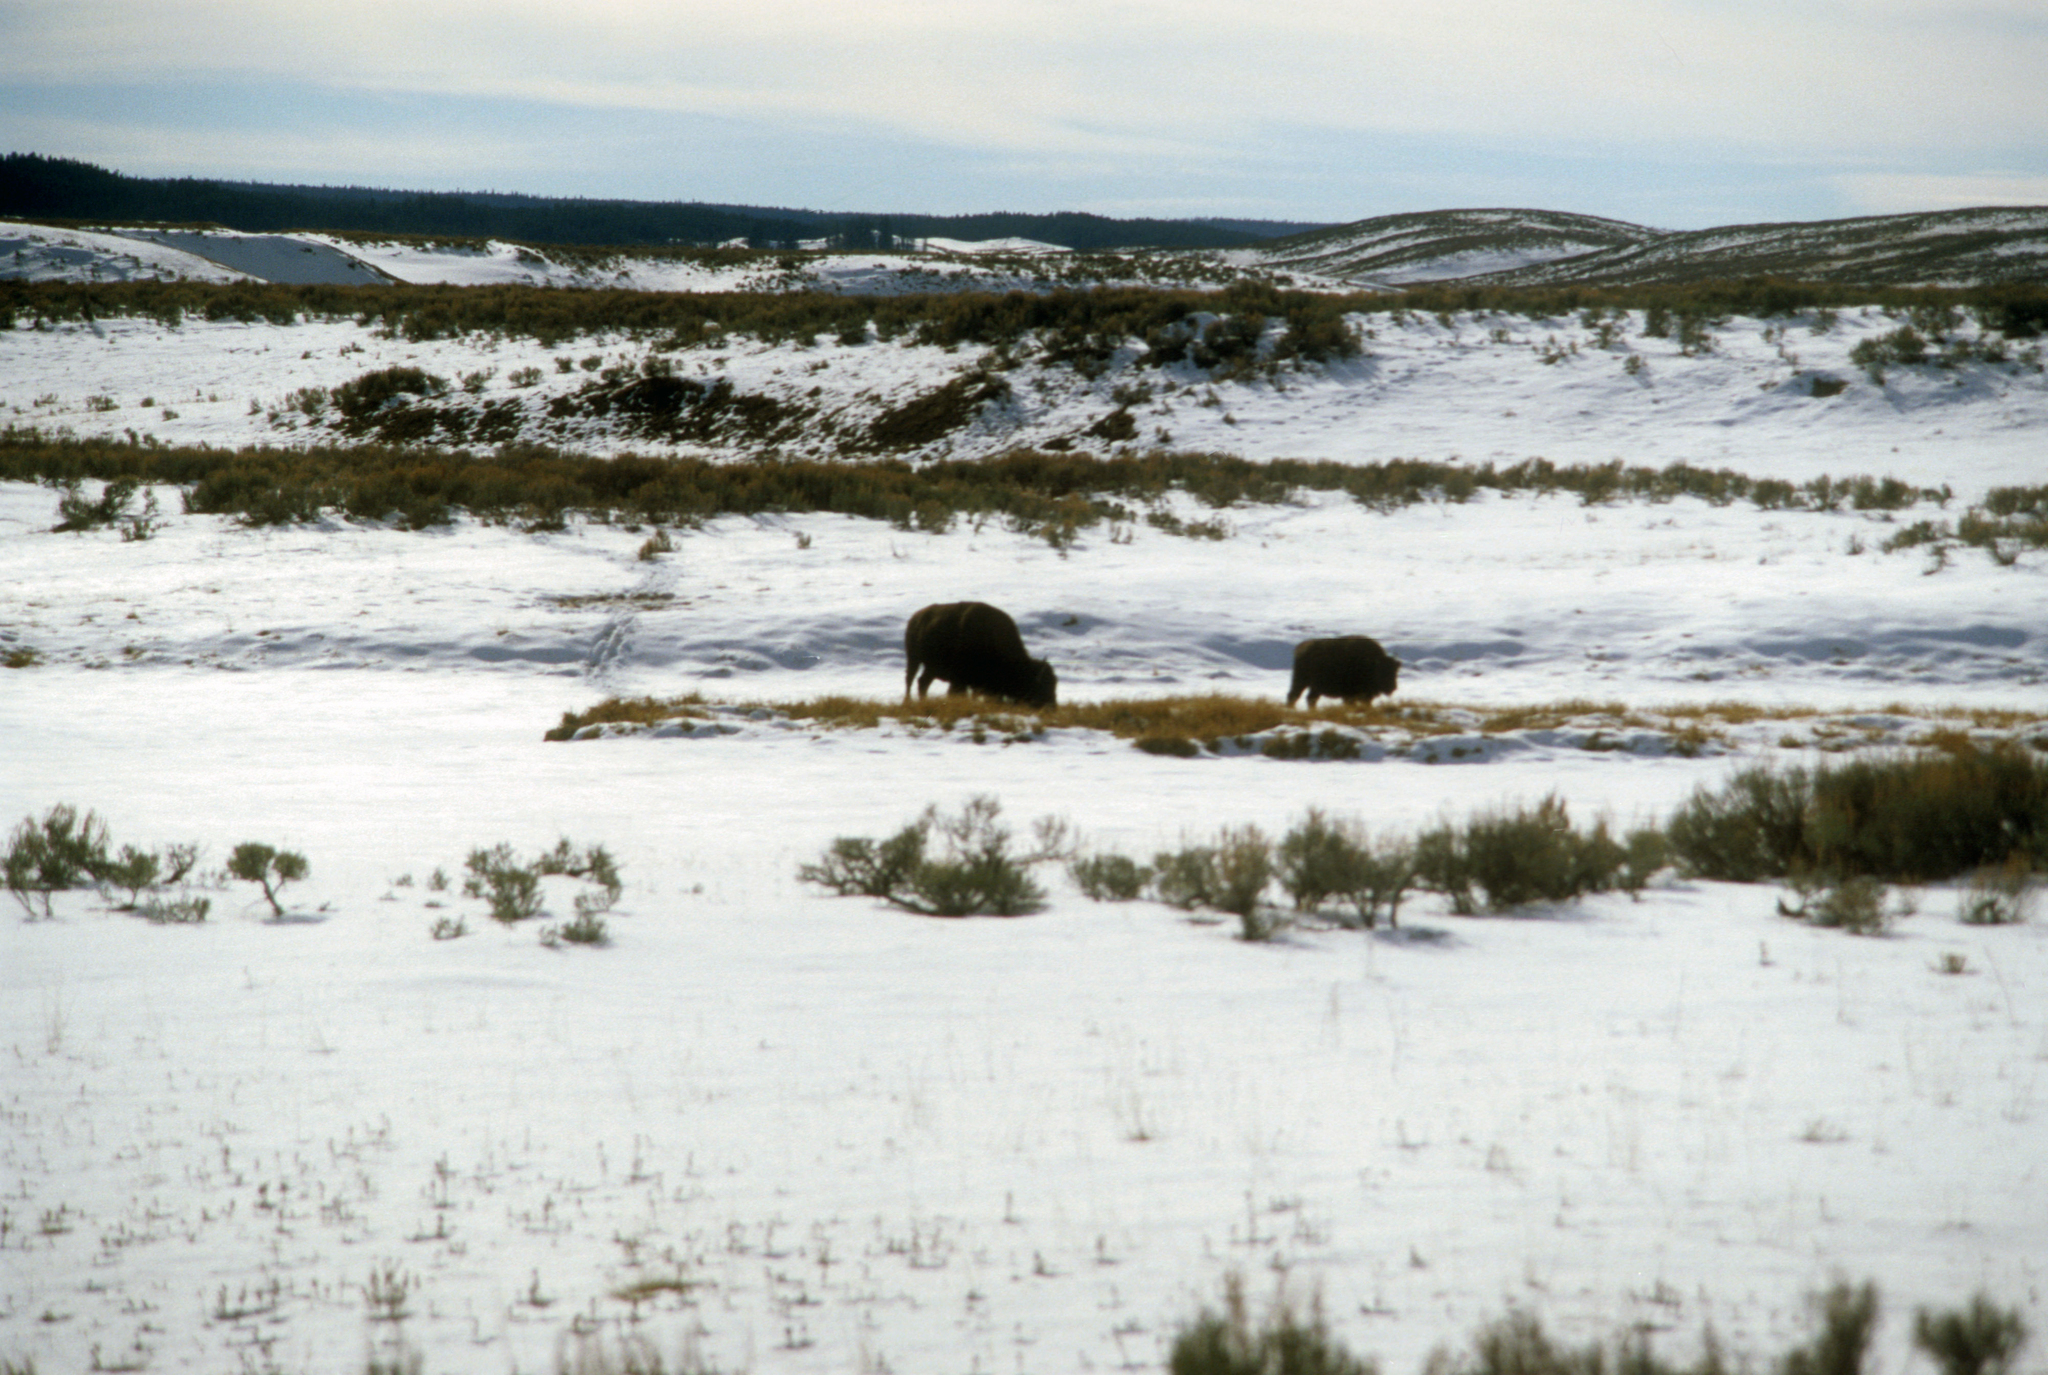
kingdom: Animalia
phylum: Chordata
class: Mammalia
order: Artiodactyla
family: Bovidae
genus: Bison
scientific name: Bison bison
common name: American bison
